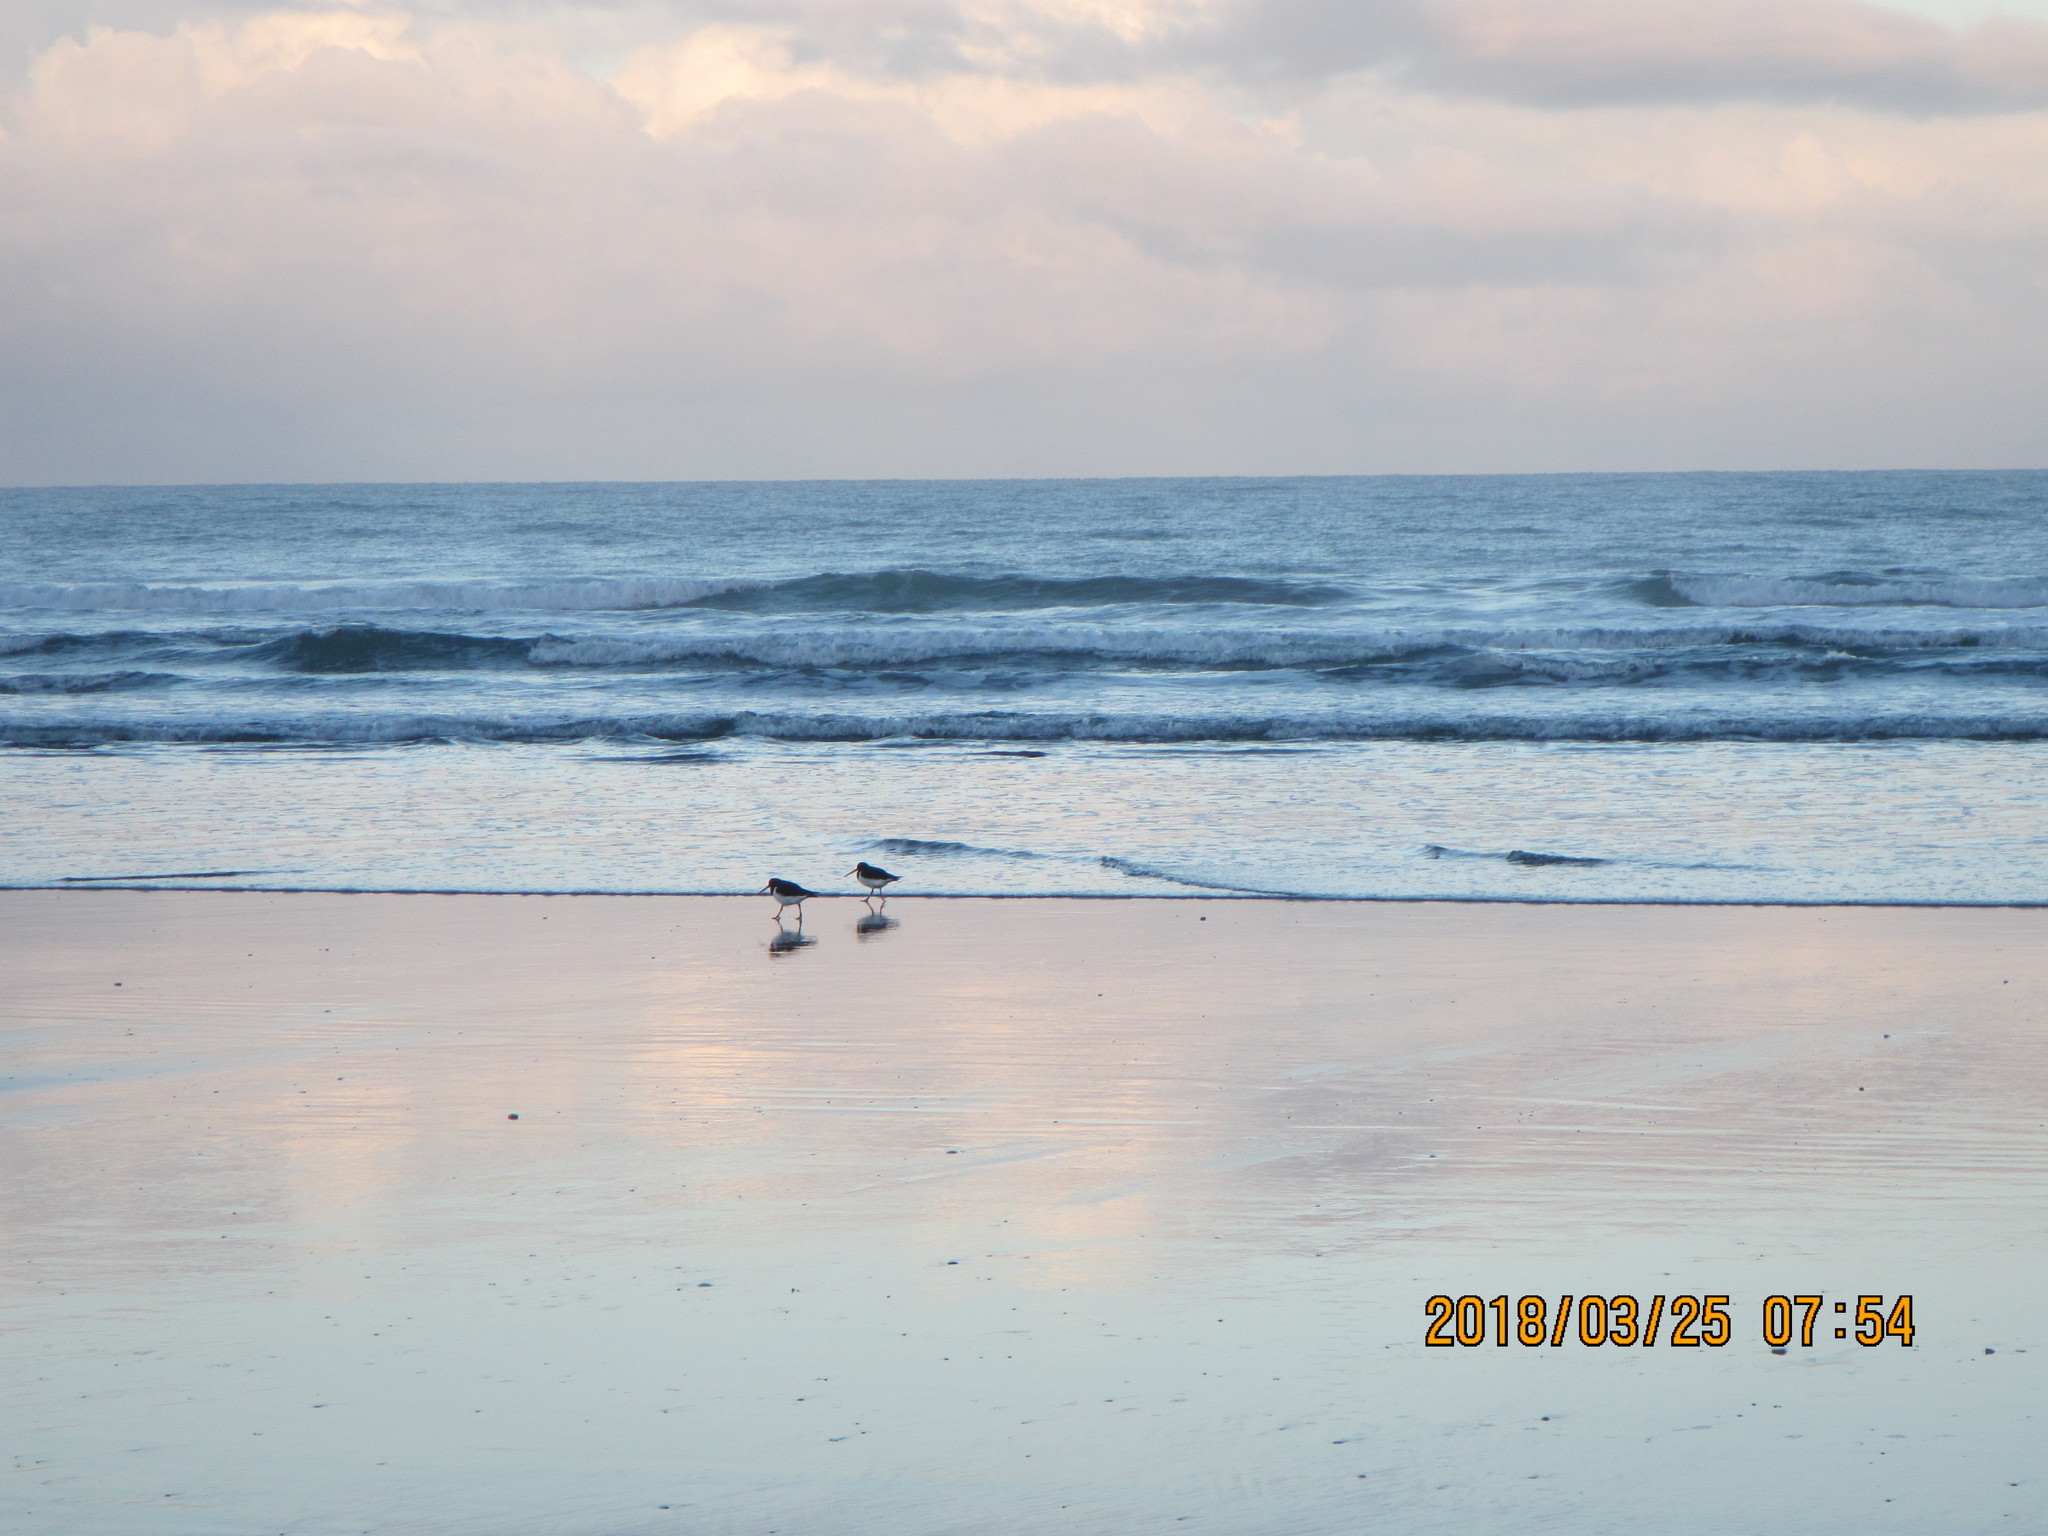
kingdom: Animalia
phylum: Chordata
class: Aves
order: Charadriiformes
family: Haematopodidae
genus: Haematopus
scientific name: Haematopus finschi
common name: South island oystercatcher
